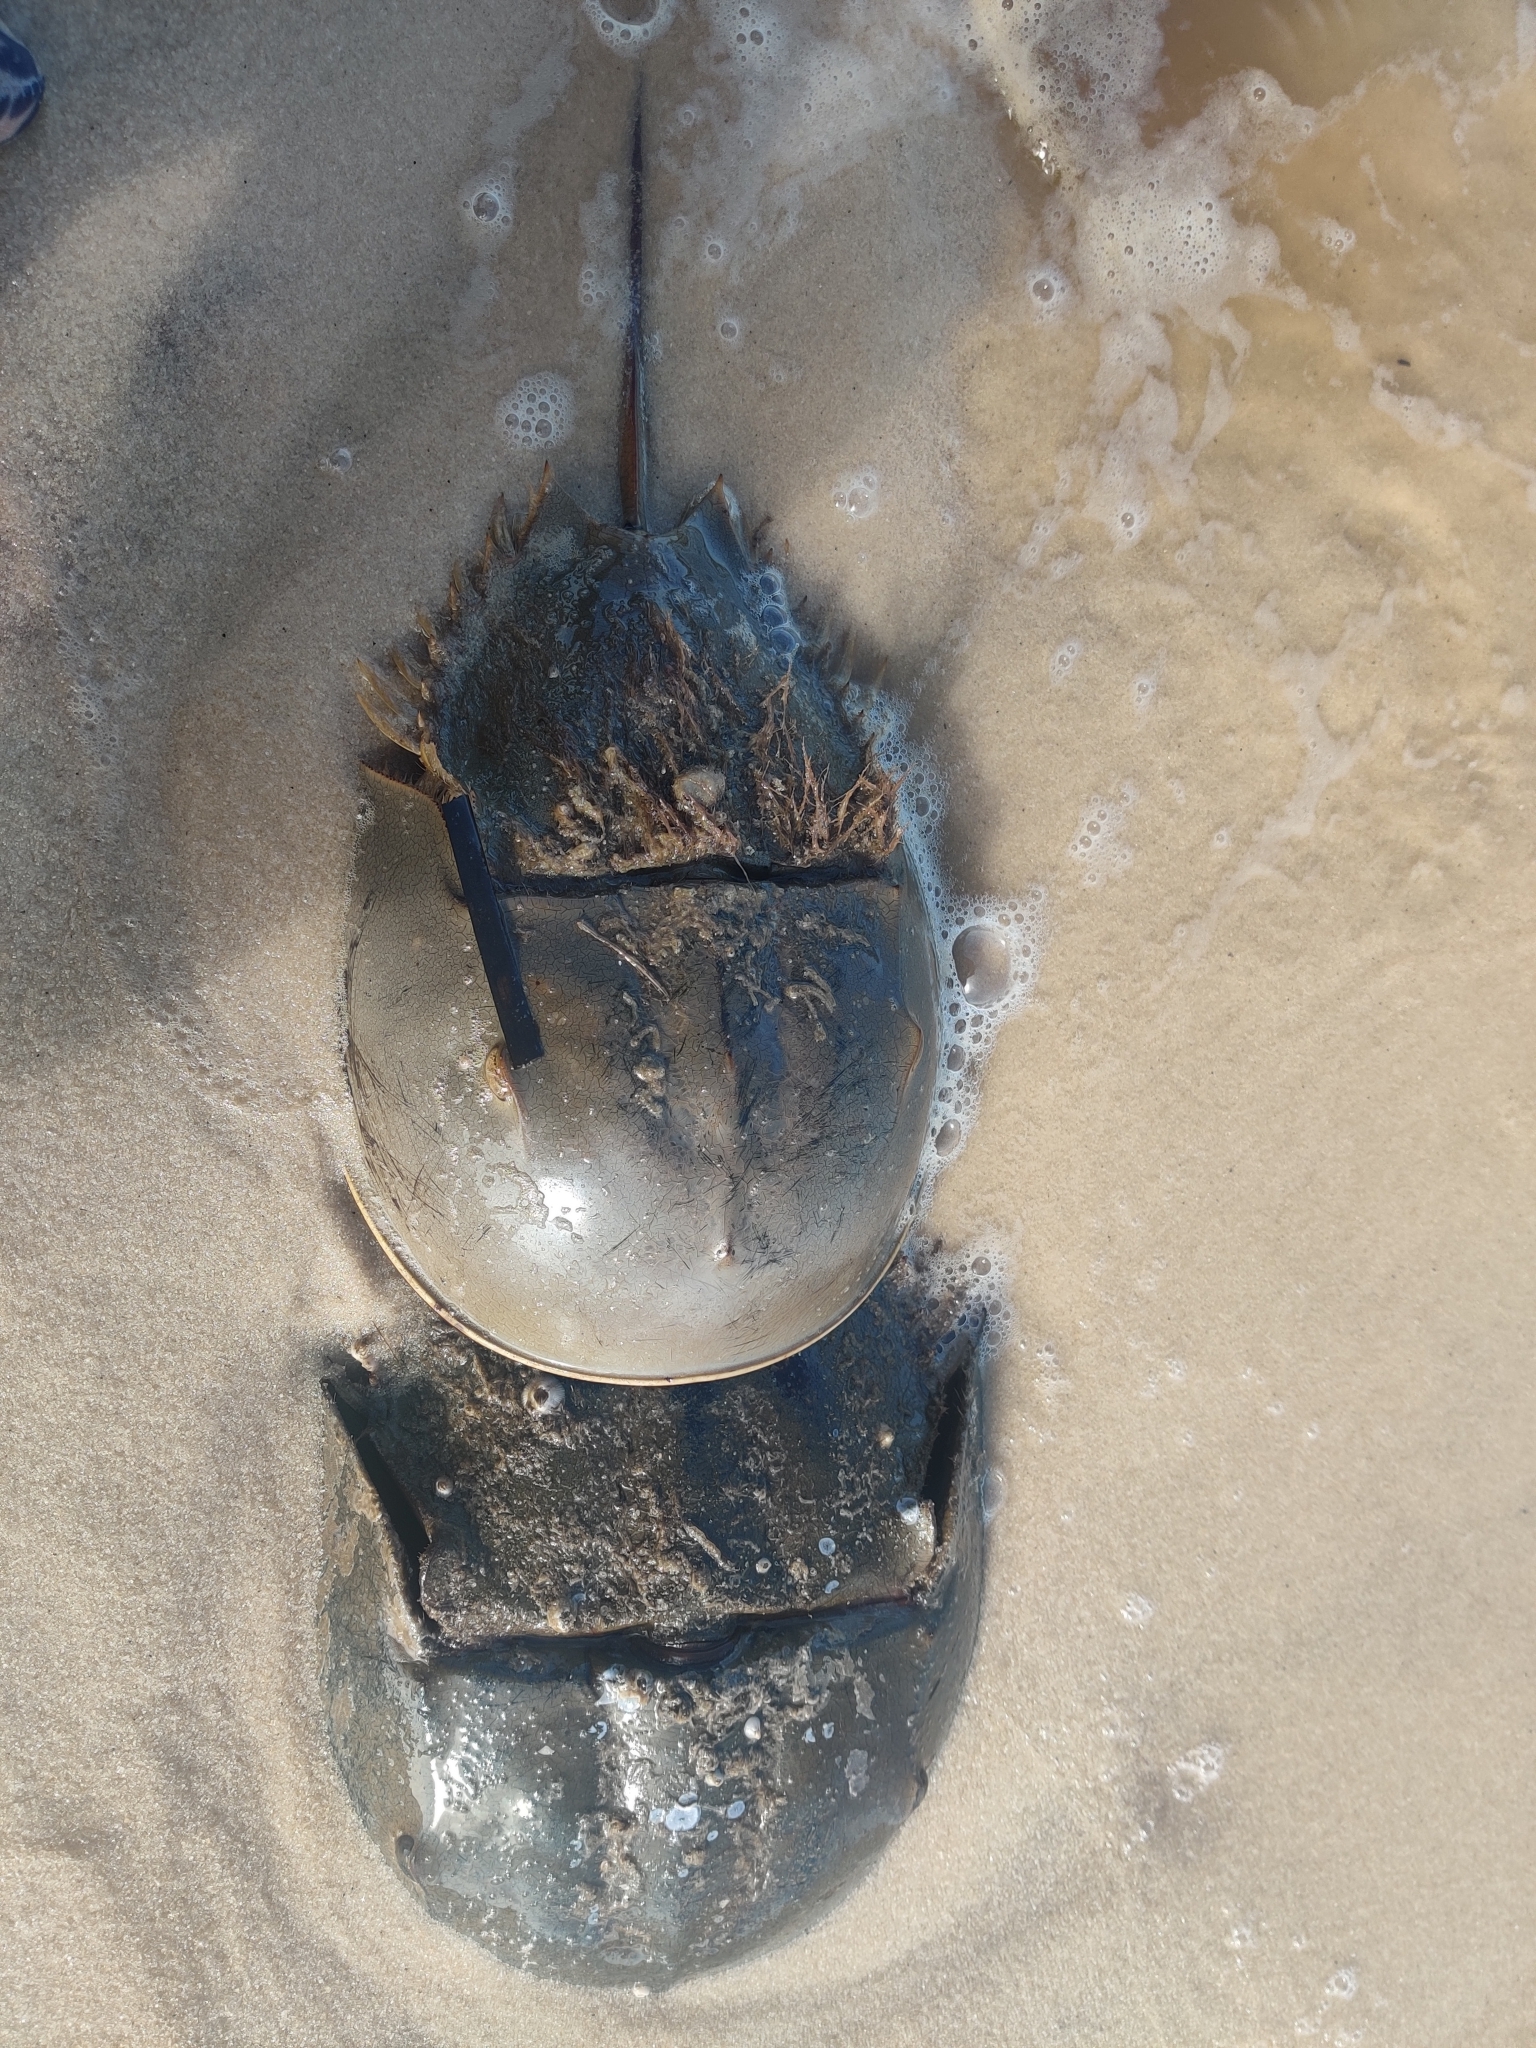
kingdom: Animalia
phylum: Arthropoda
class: Merostomata
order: Xiphosurida
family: Limulidae
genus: Limulus
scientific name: Limulus polyphemus
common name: Horseshoe crab
